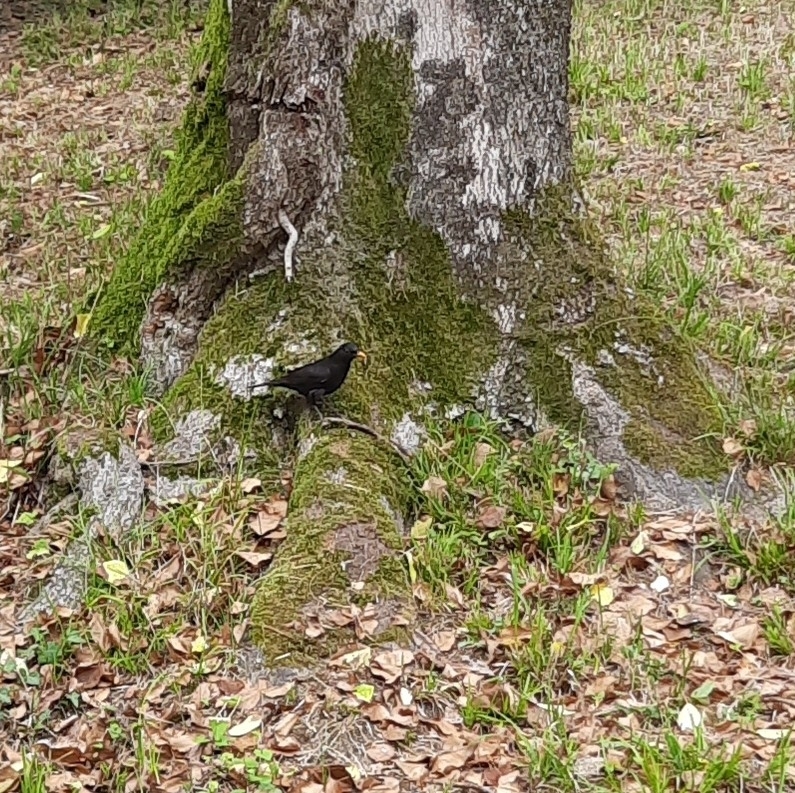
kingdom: Animalia
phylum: Chordata
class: Aves
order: Passeriformes
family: Turdidae
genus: Turdus
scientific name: Turdus merula
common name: Common blackbird
